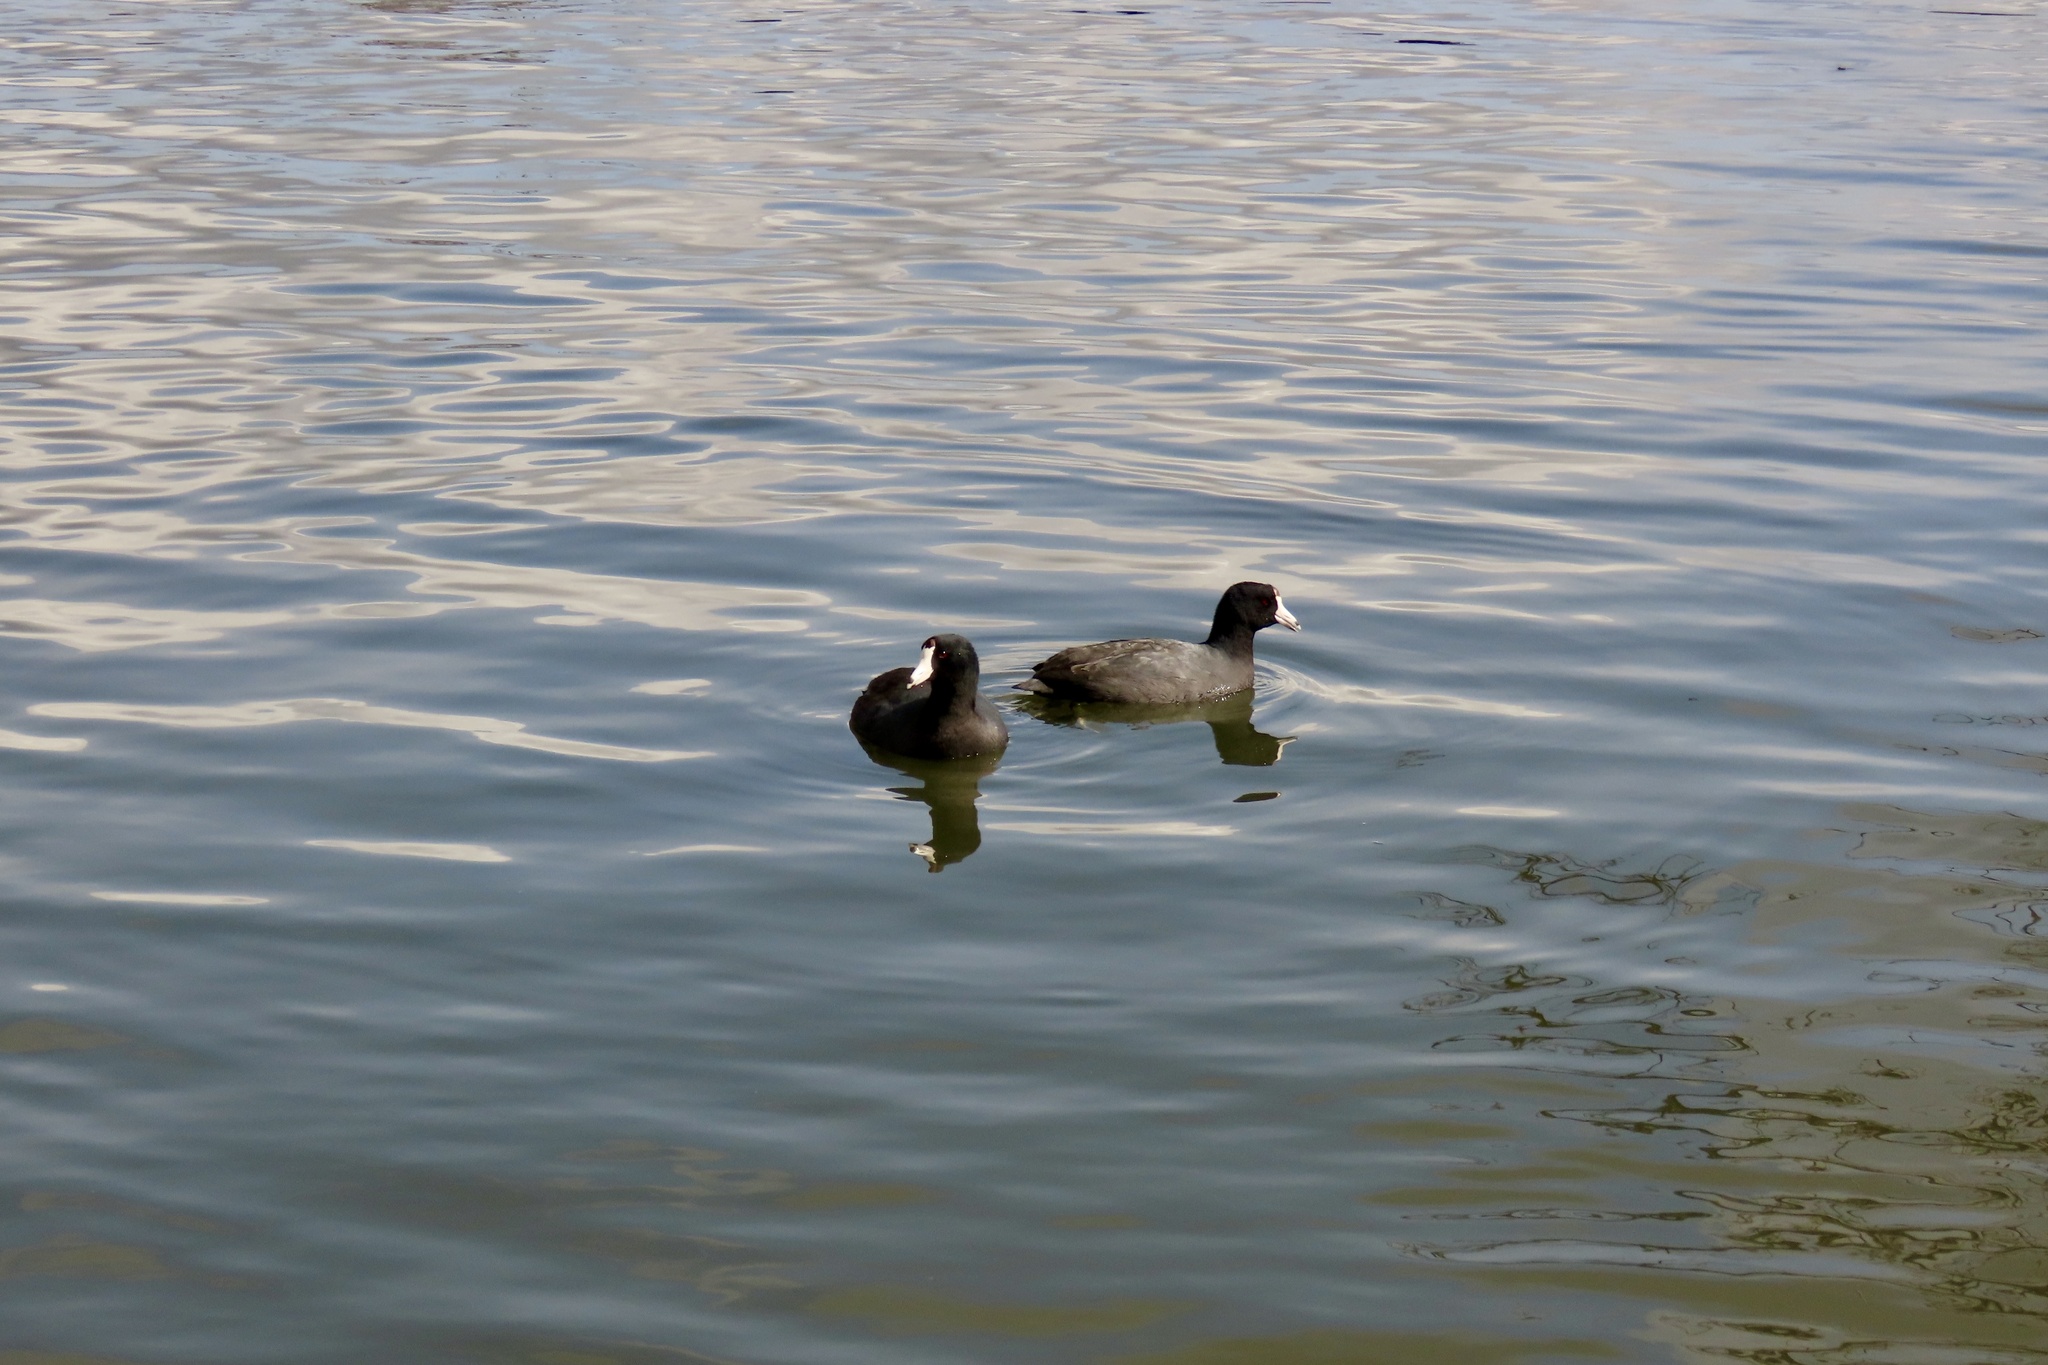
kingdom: Animalia
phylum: Chordata
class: Aves
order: Gruiformes
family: Rallidae
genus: Fulica
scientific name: Fulica americana
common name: American coot
